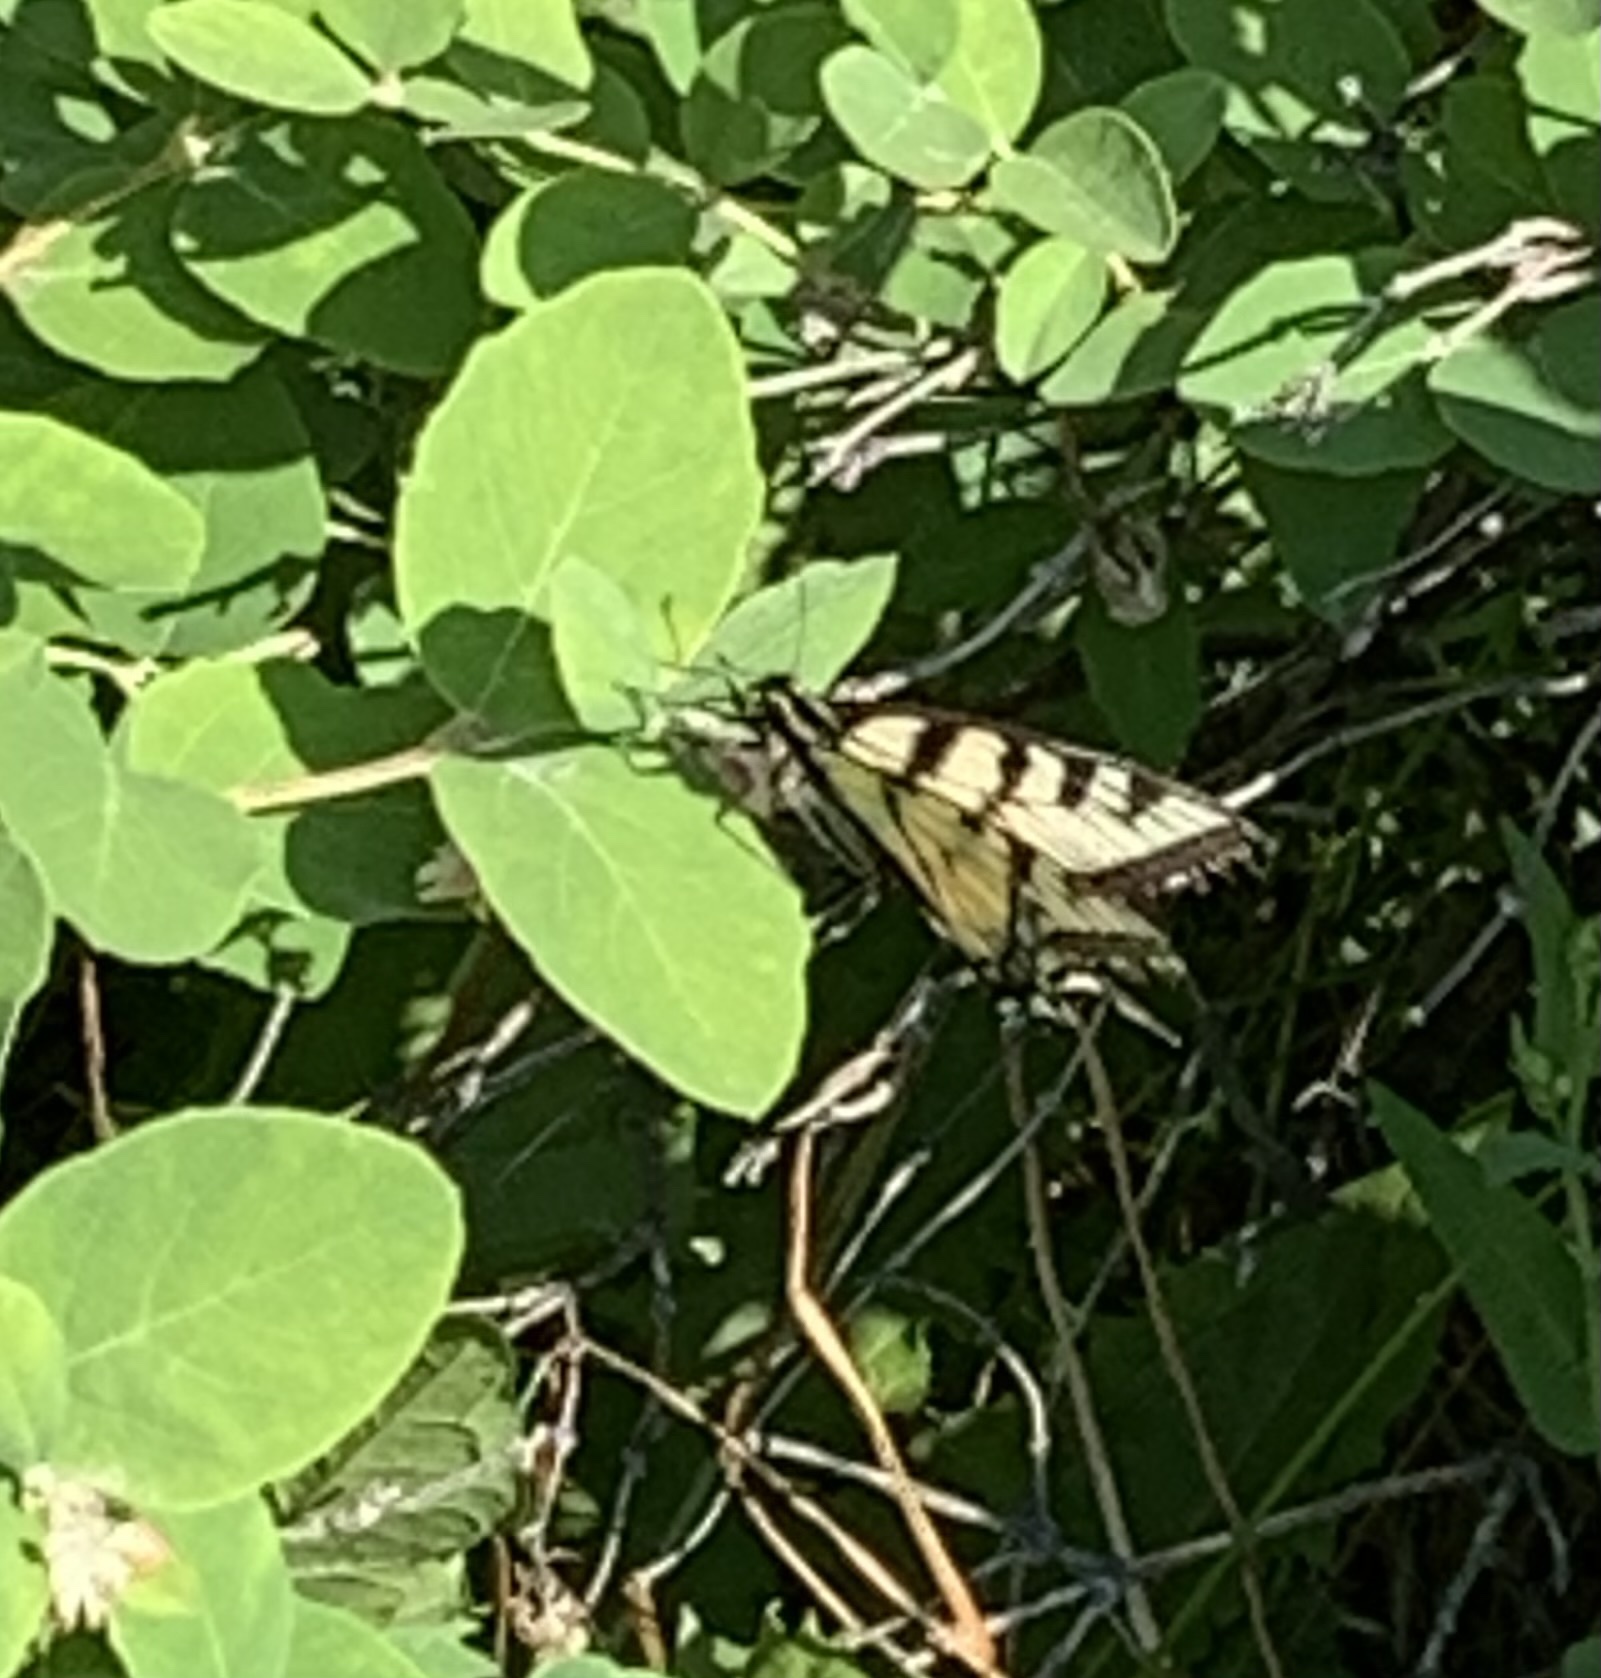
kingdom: Animalia
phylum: Arthropoda
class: Insecta
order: Lepidoptera
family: Papilionidae
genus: Papilio
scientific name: Papilio canadensis
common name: Canadian tiger swallowtail
